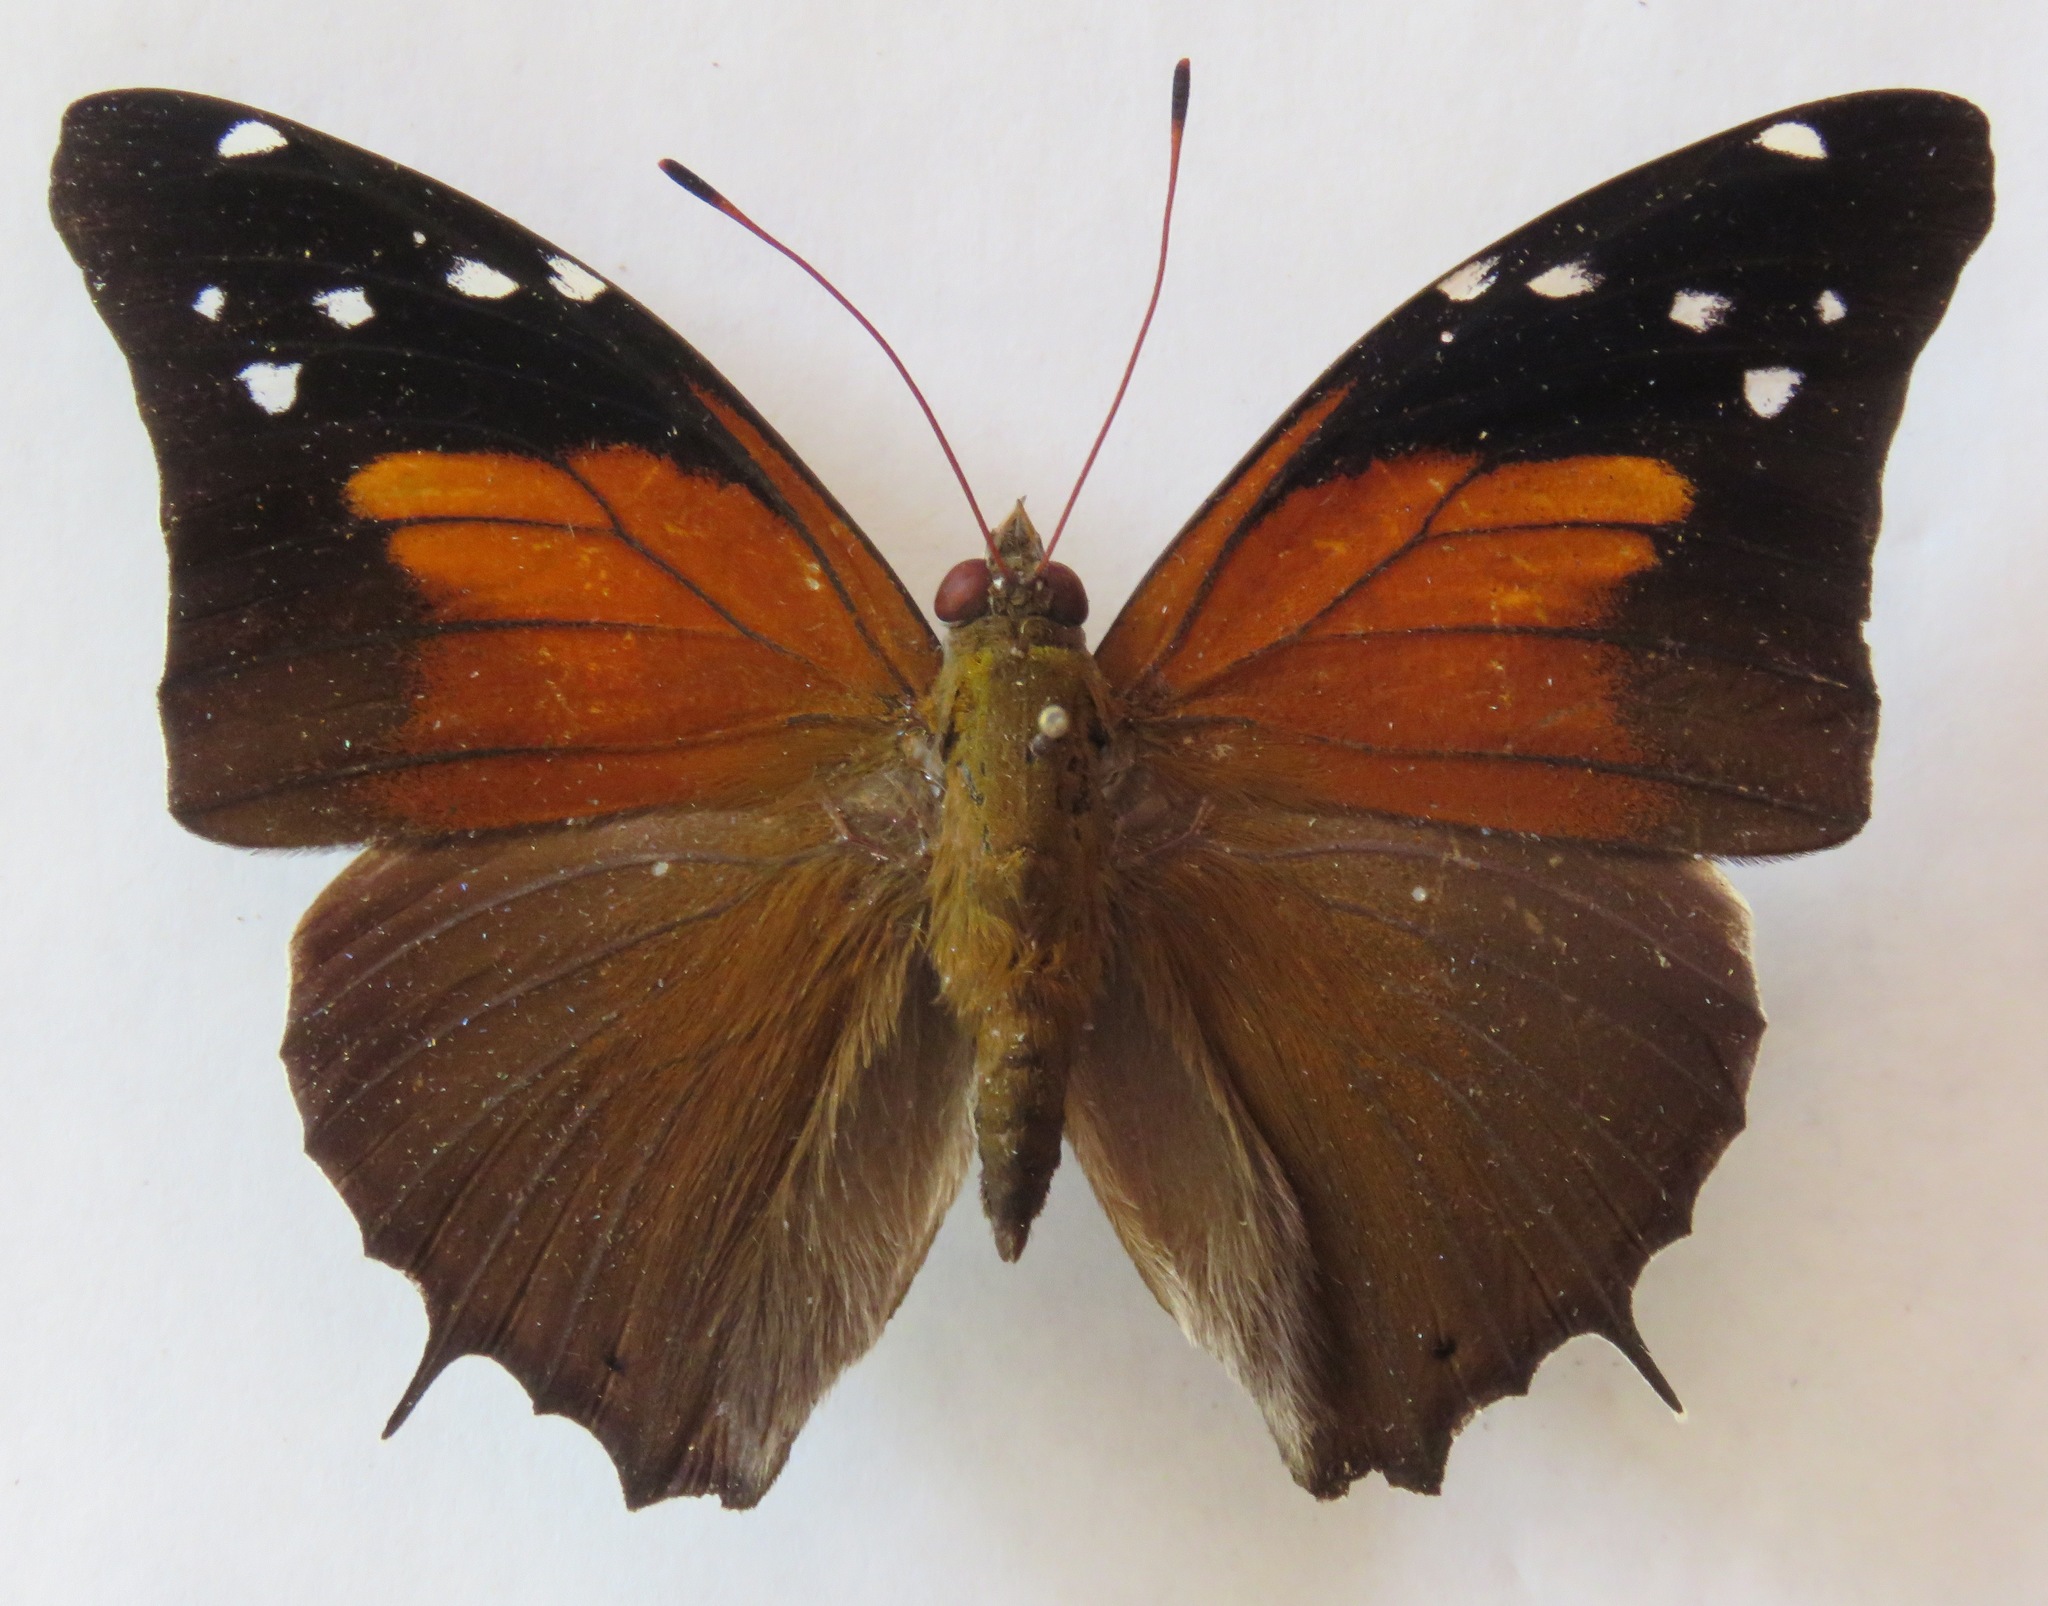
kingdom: Animalia
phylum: Arthropoda
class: Insecta
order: Lepidoptera
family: Nymphalidae
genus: Coea
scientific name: Coea acheronta
